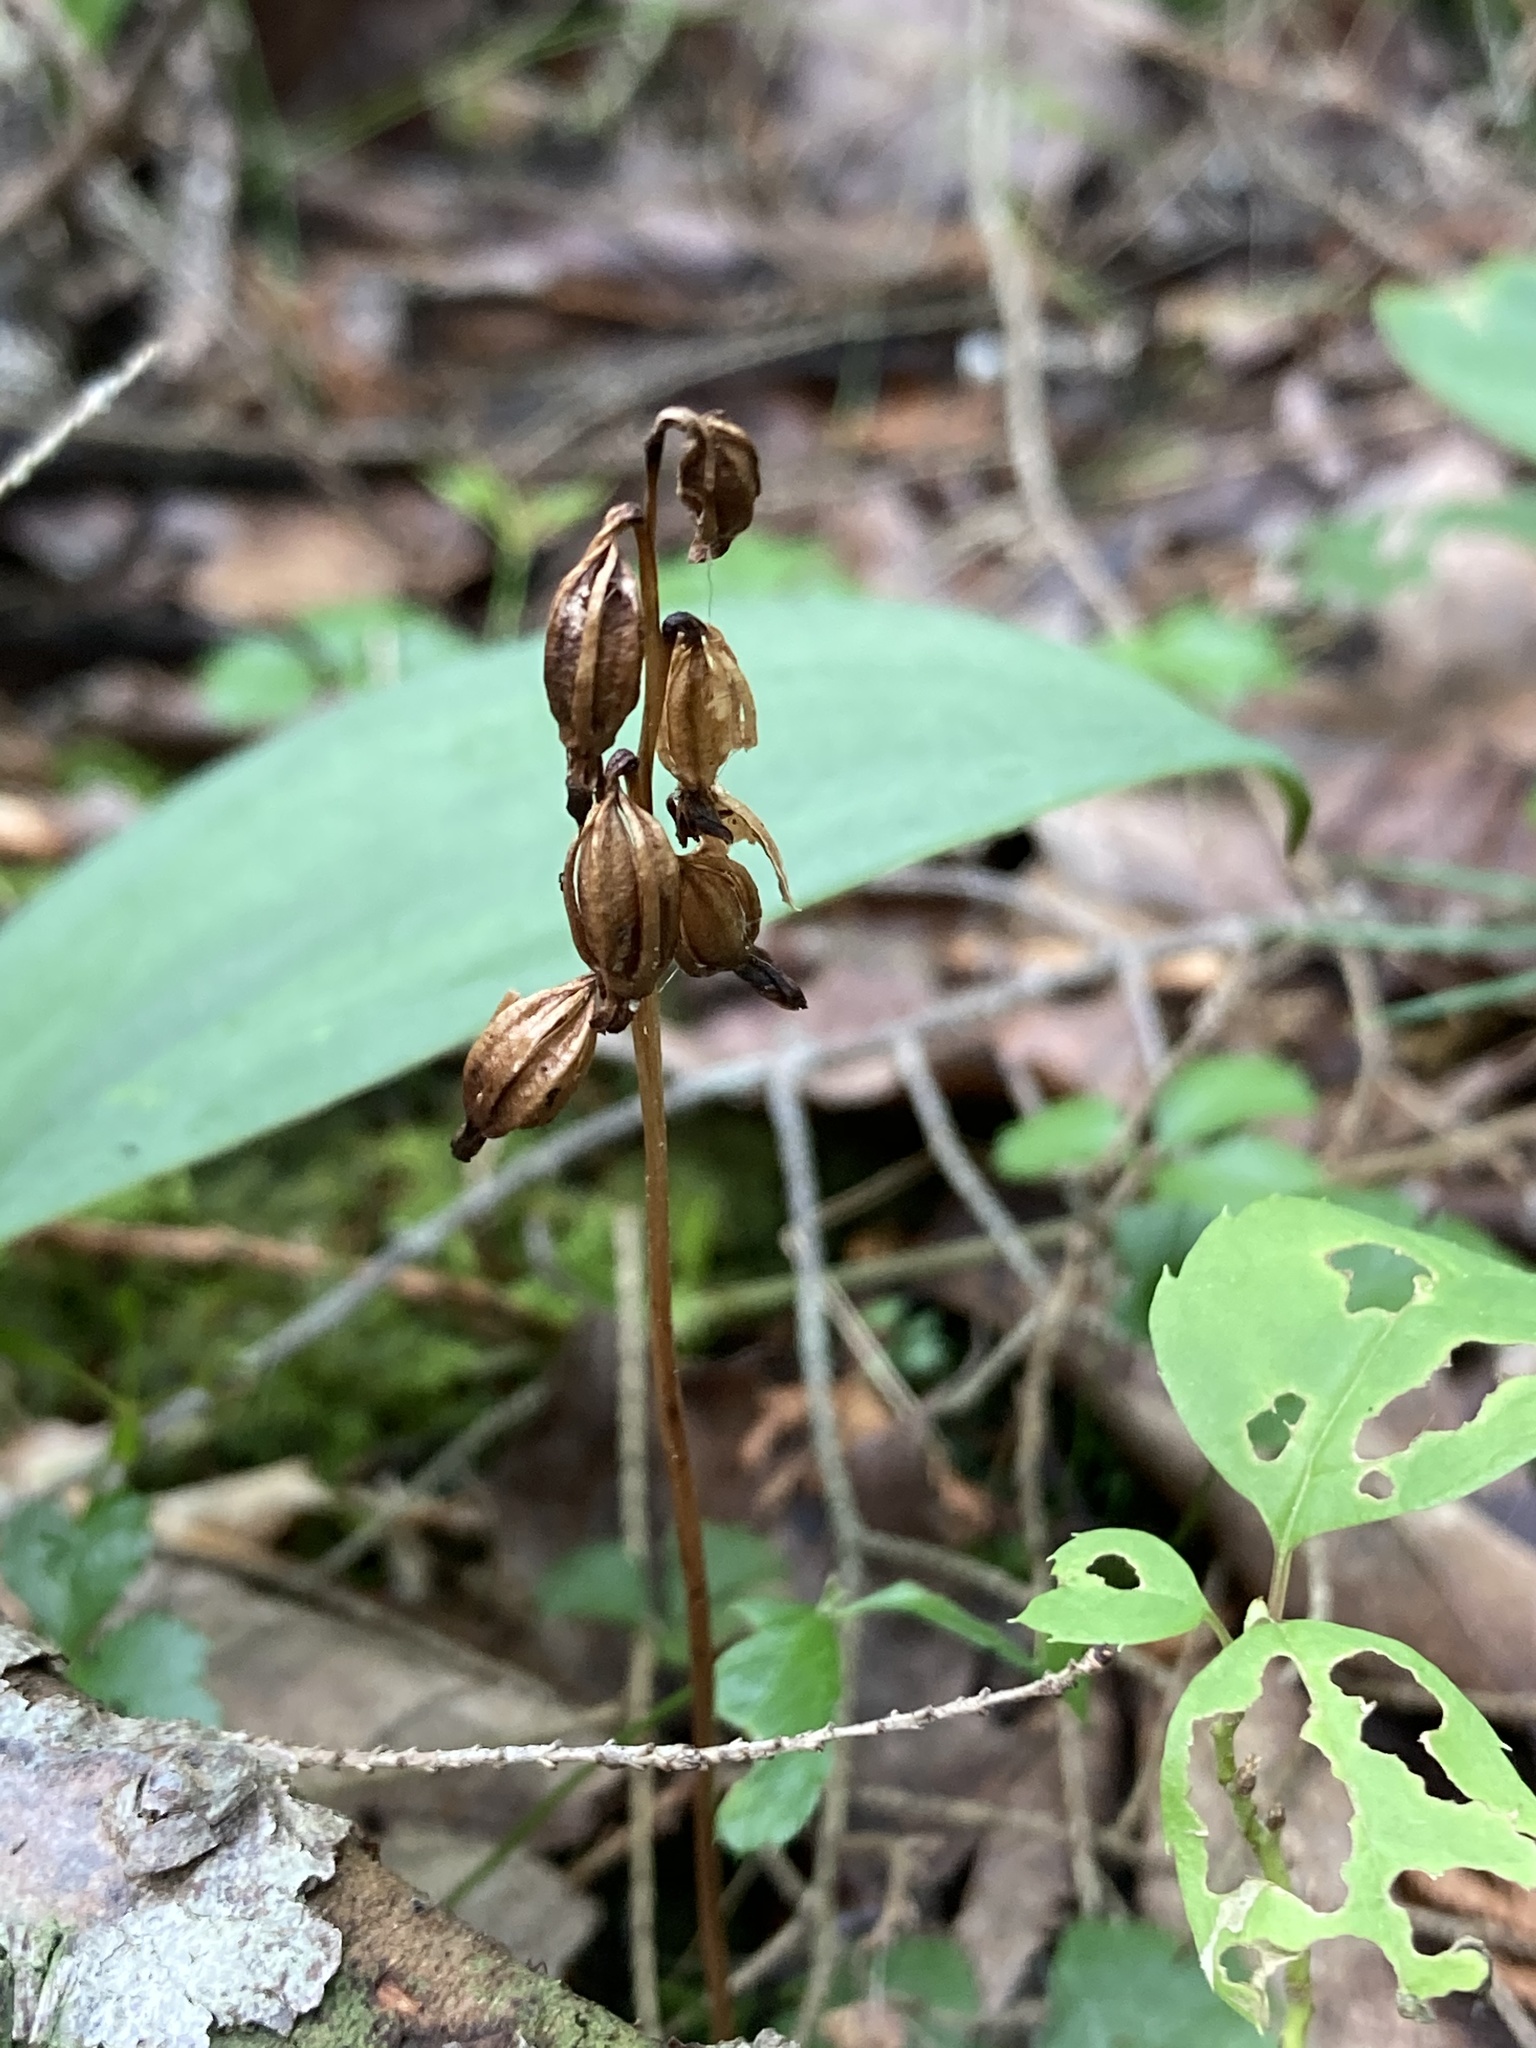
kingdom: Plantae
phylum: Tracheophyta
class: Liliopsida
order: Asparagales
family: Orchidaceae
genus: Corallorhiza
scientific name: Corallorhiza trifida
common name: Yellow coralroot
